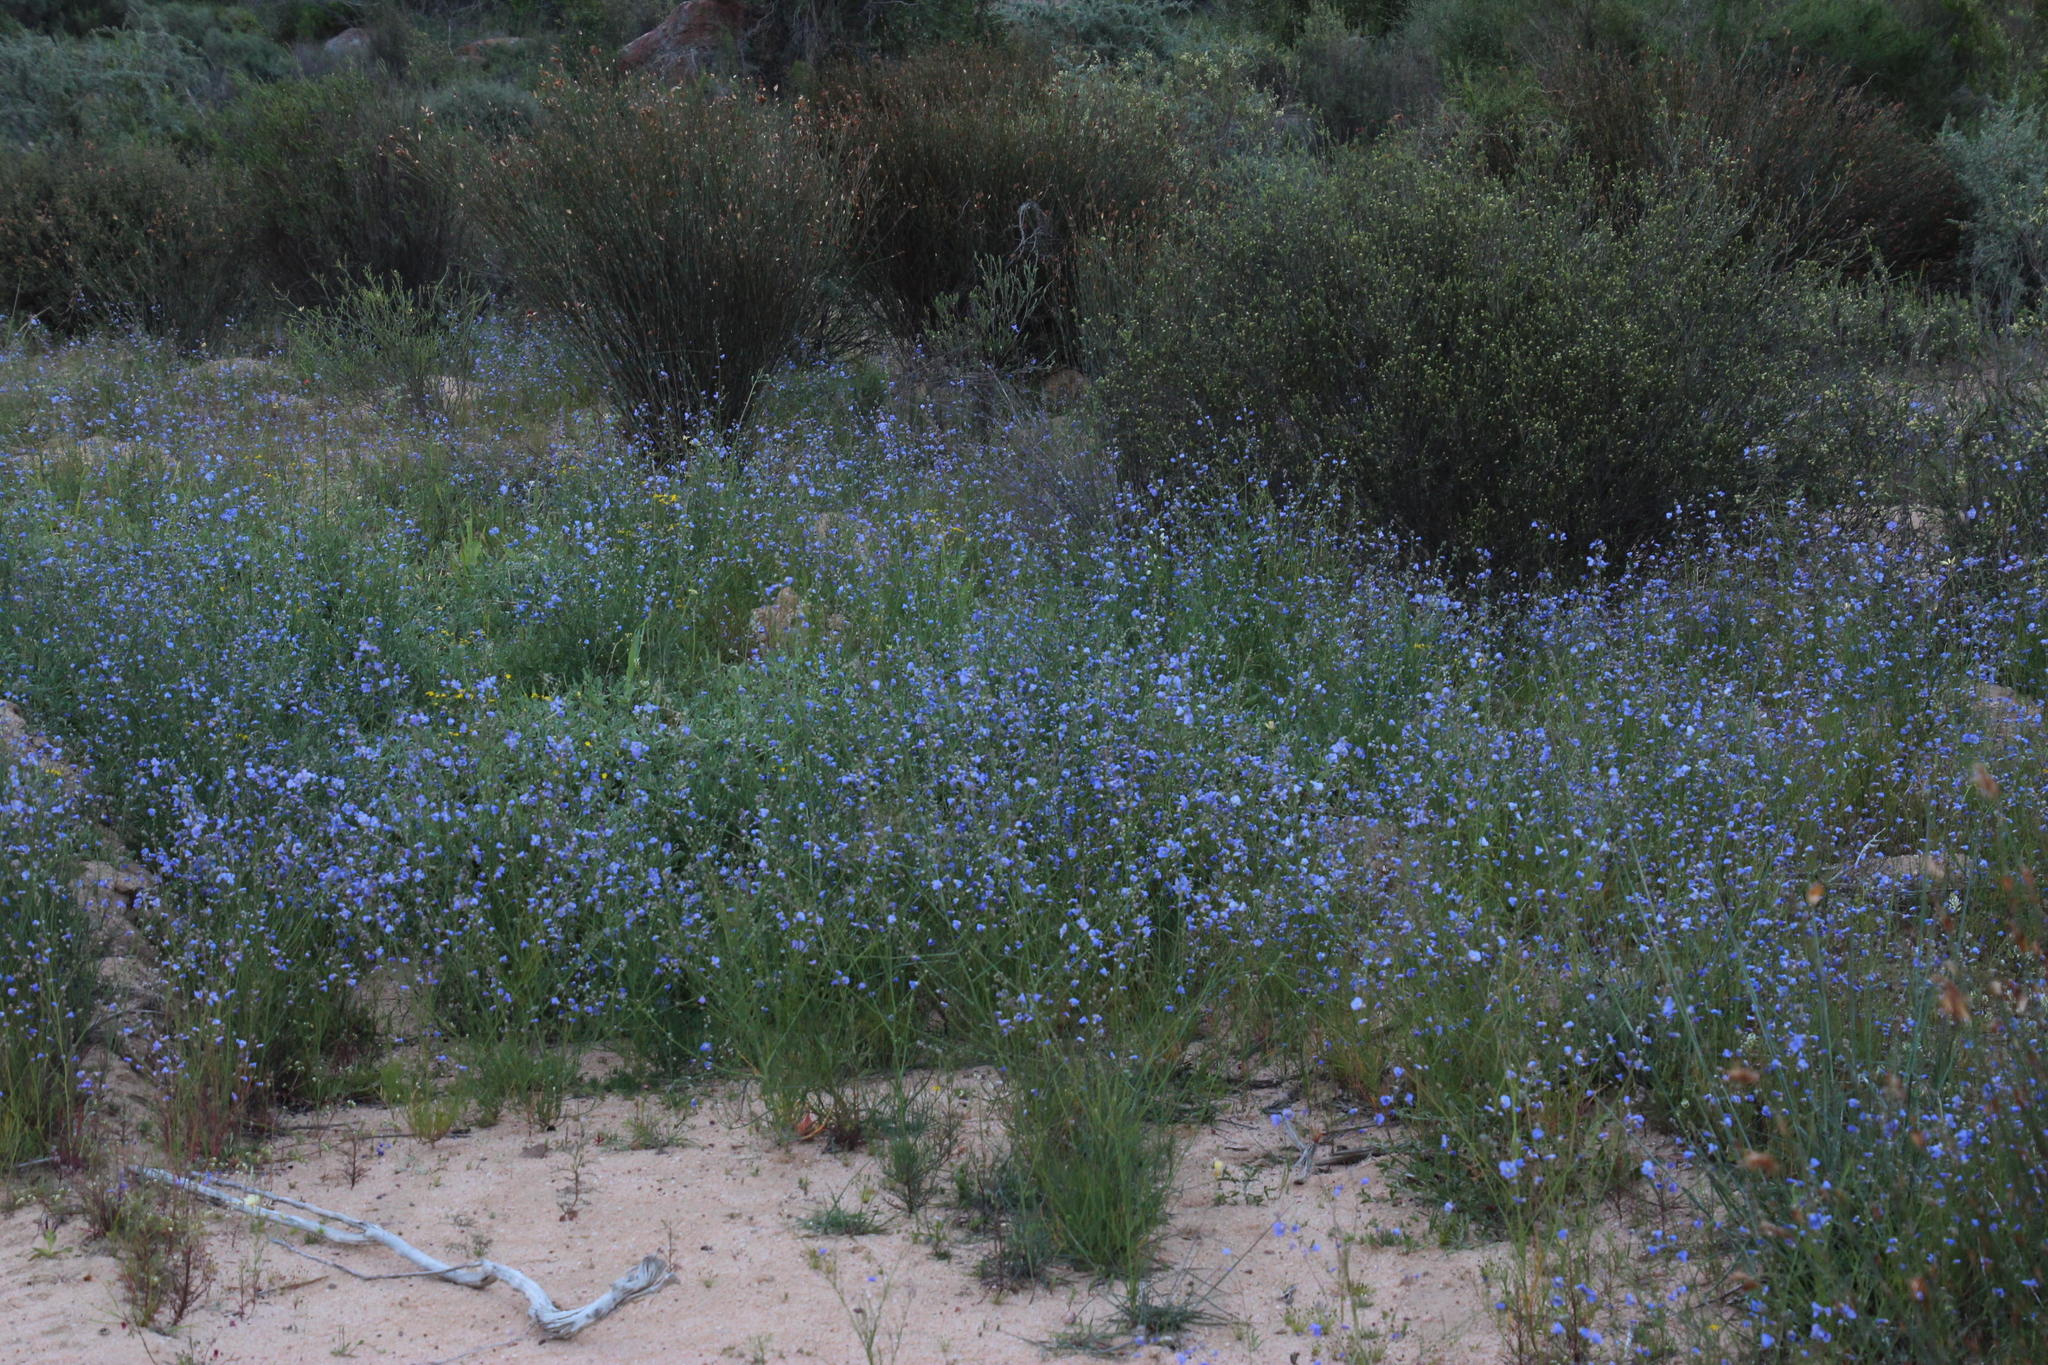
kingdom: Plantae
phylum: Tracheophyta
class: Magnoliopsida
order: Brassicales
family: Brassicaceae
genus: Heliophila
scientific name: Heliophila arenaria
